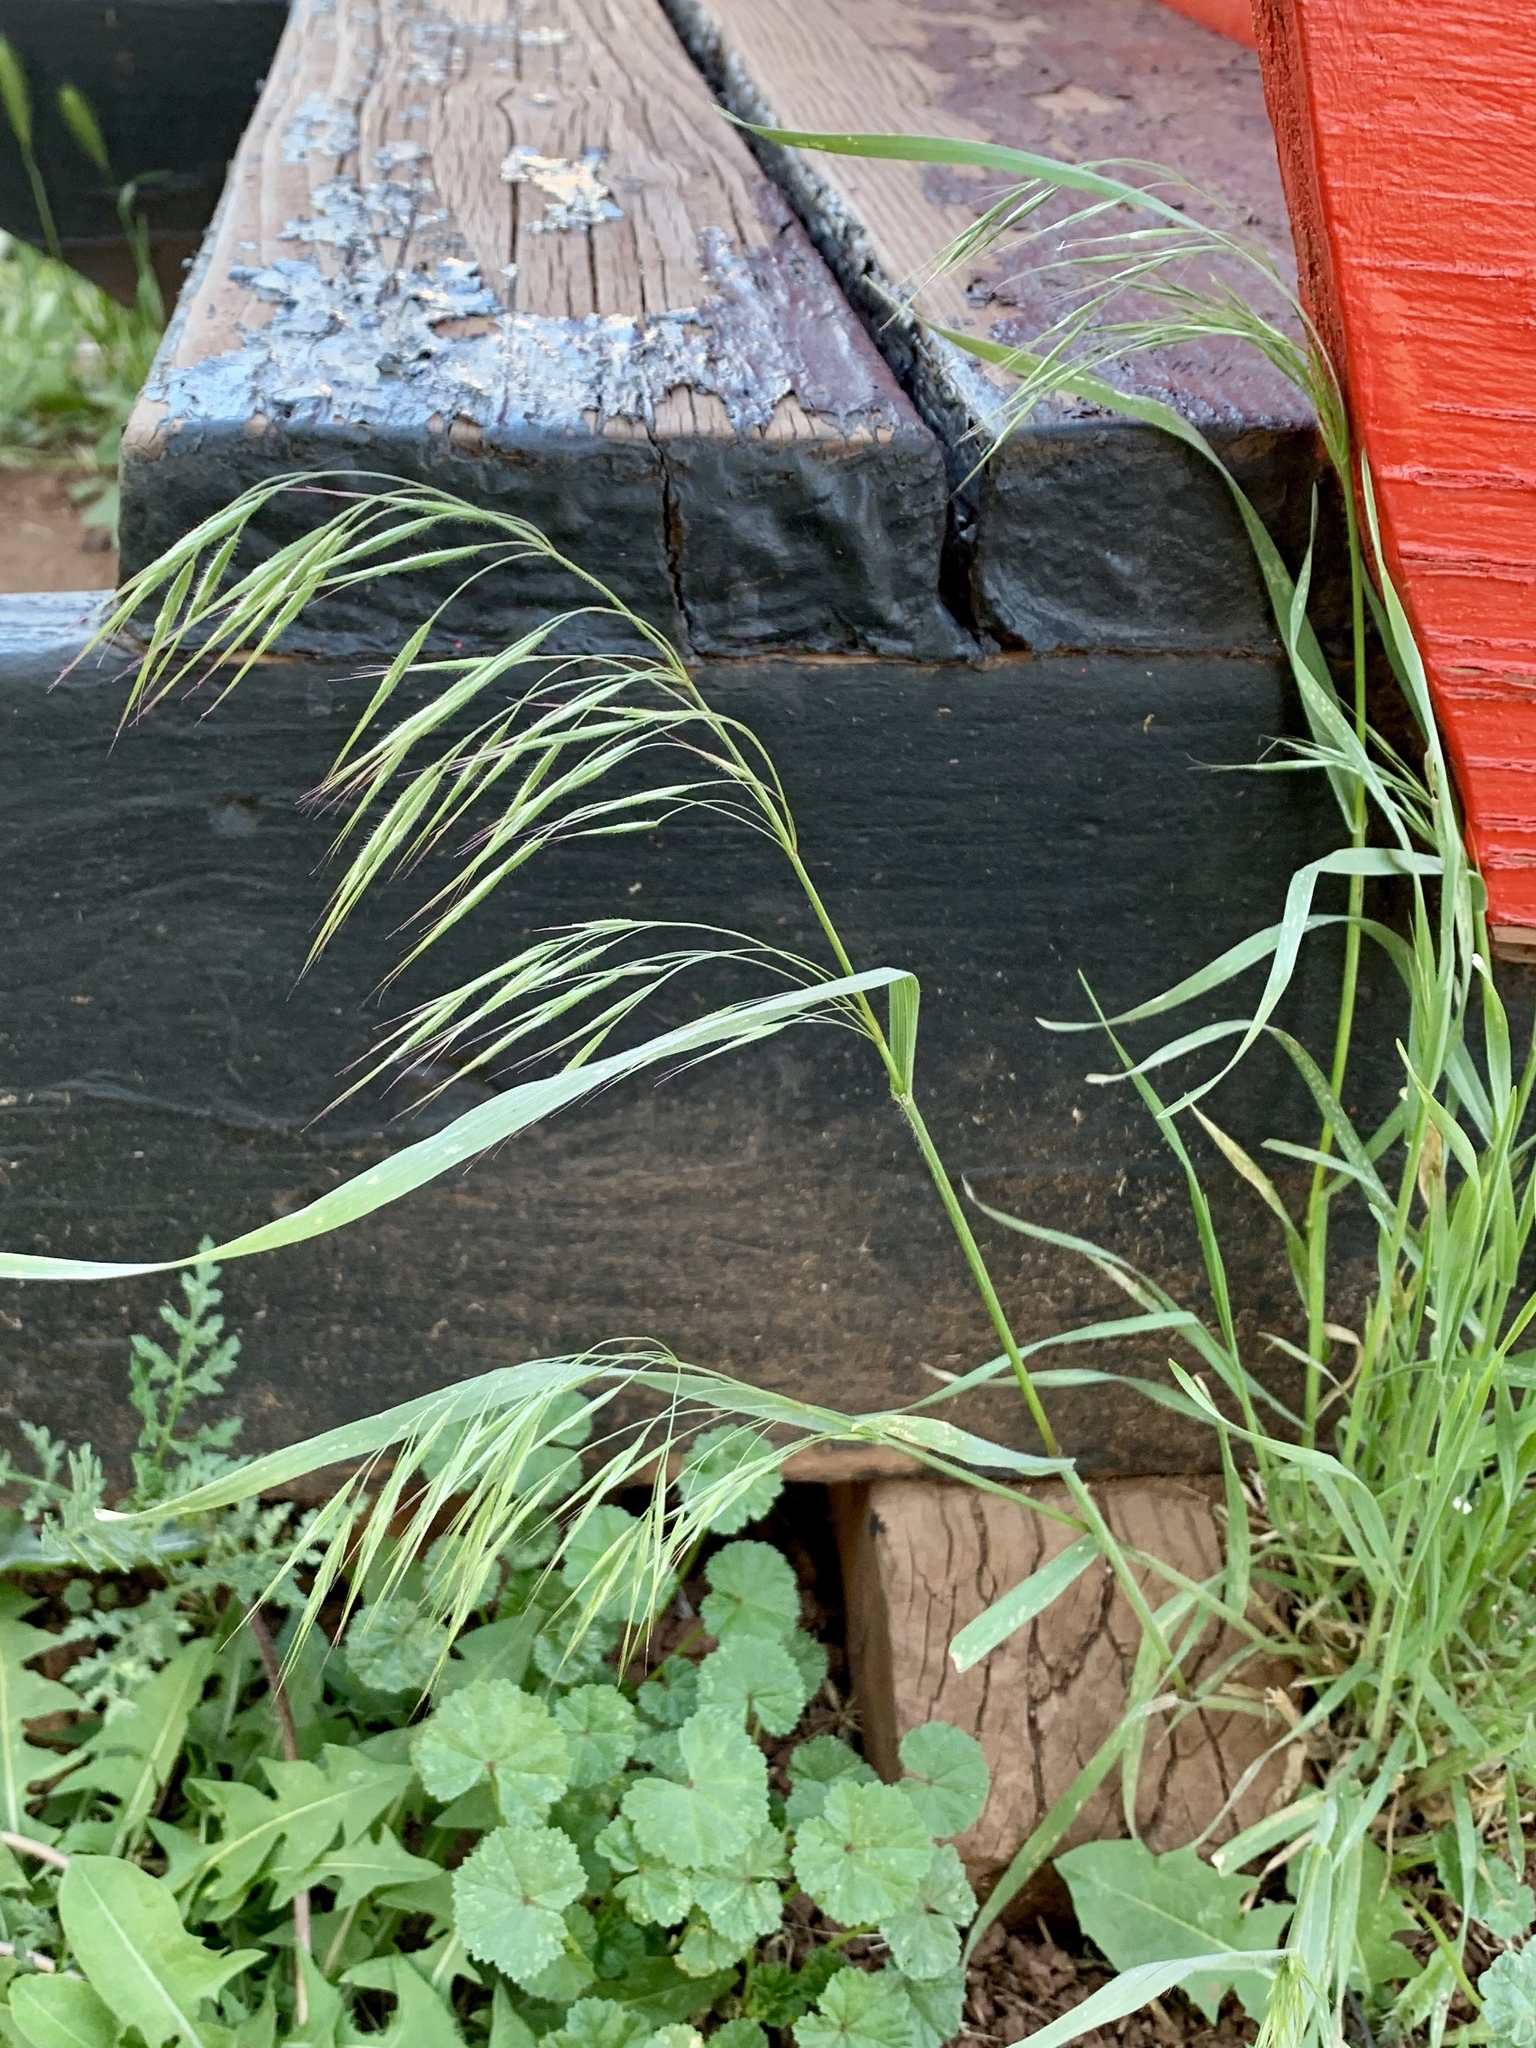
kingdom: Plantae
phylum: Tracheophyta
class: Liliopsida
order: Poales
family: Poaceae
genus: Bromus
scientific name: Bromus tectorum
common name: Cheatgrass
